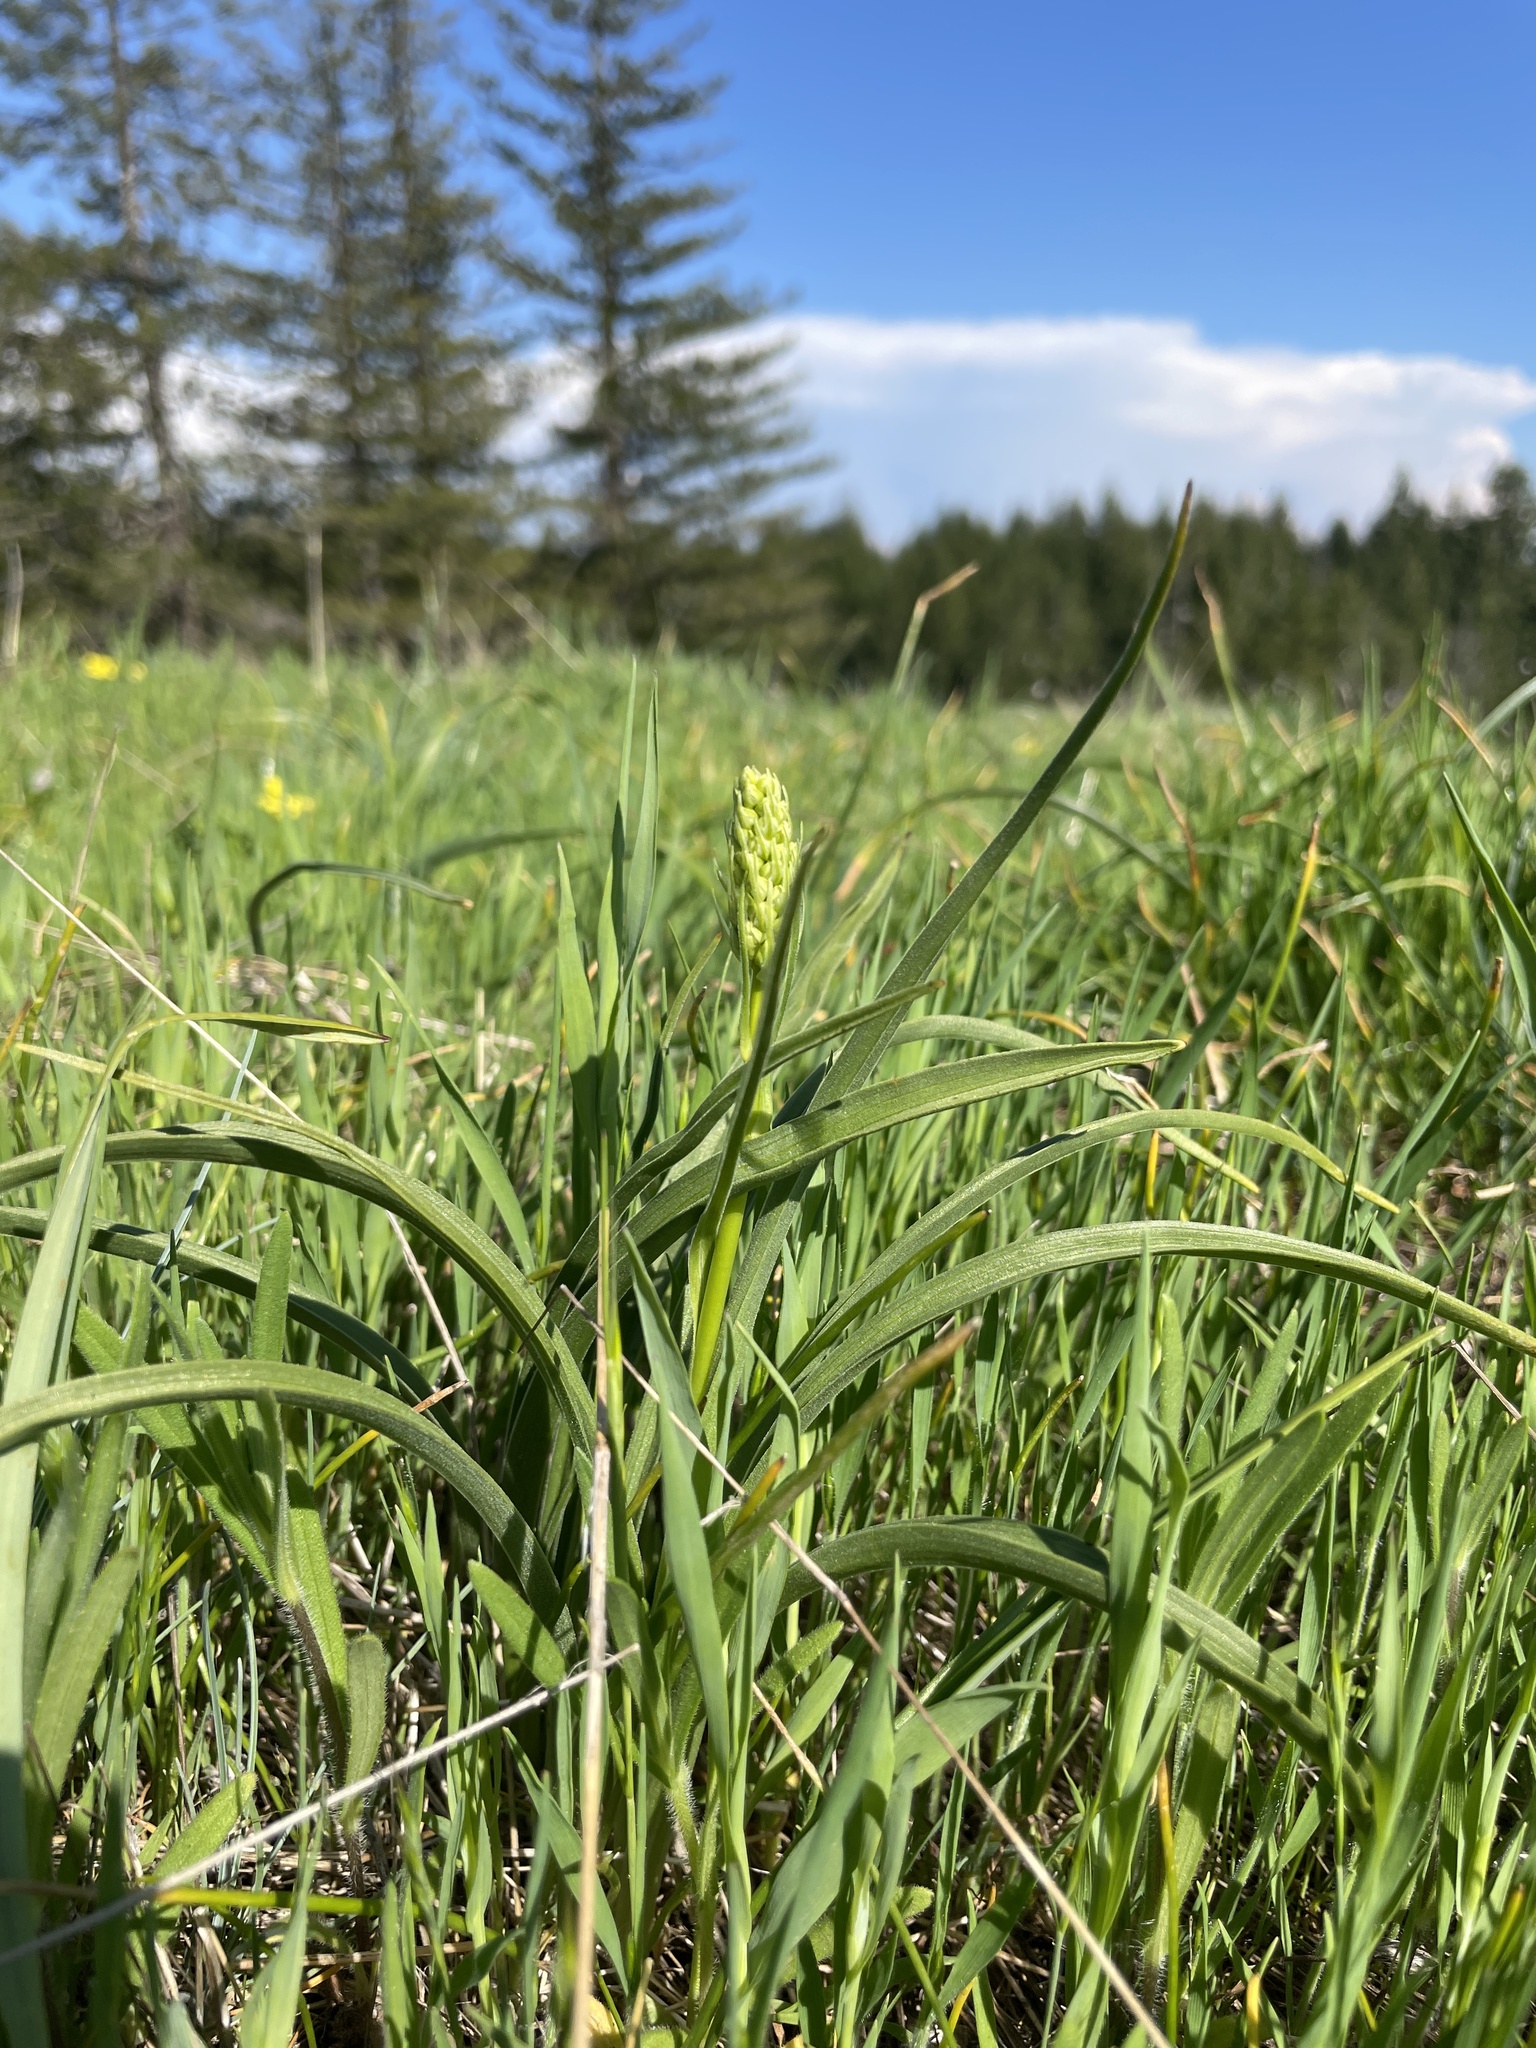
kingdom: Plantae
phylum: Tracheophyta
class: Liliopsida
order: Liliales
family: Melanthiaceae
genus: Toxicoscordion
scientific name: Toxicoscordion venenosum
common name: Meadow death camas
